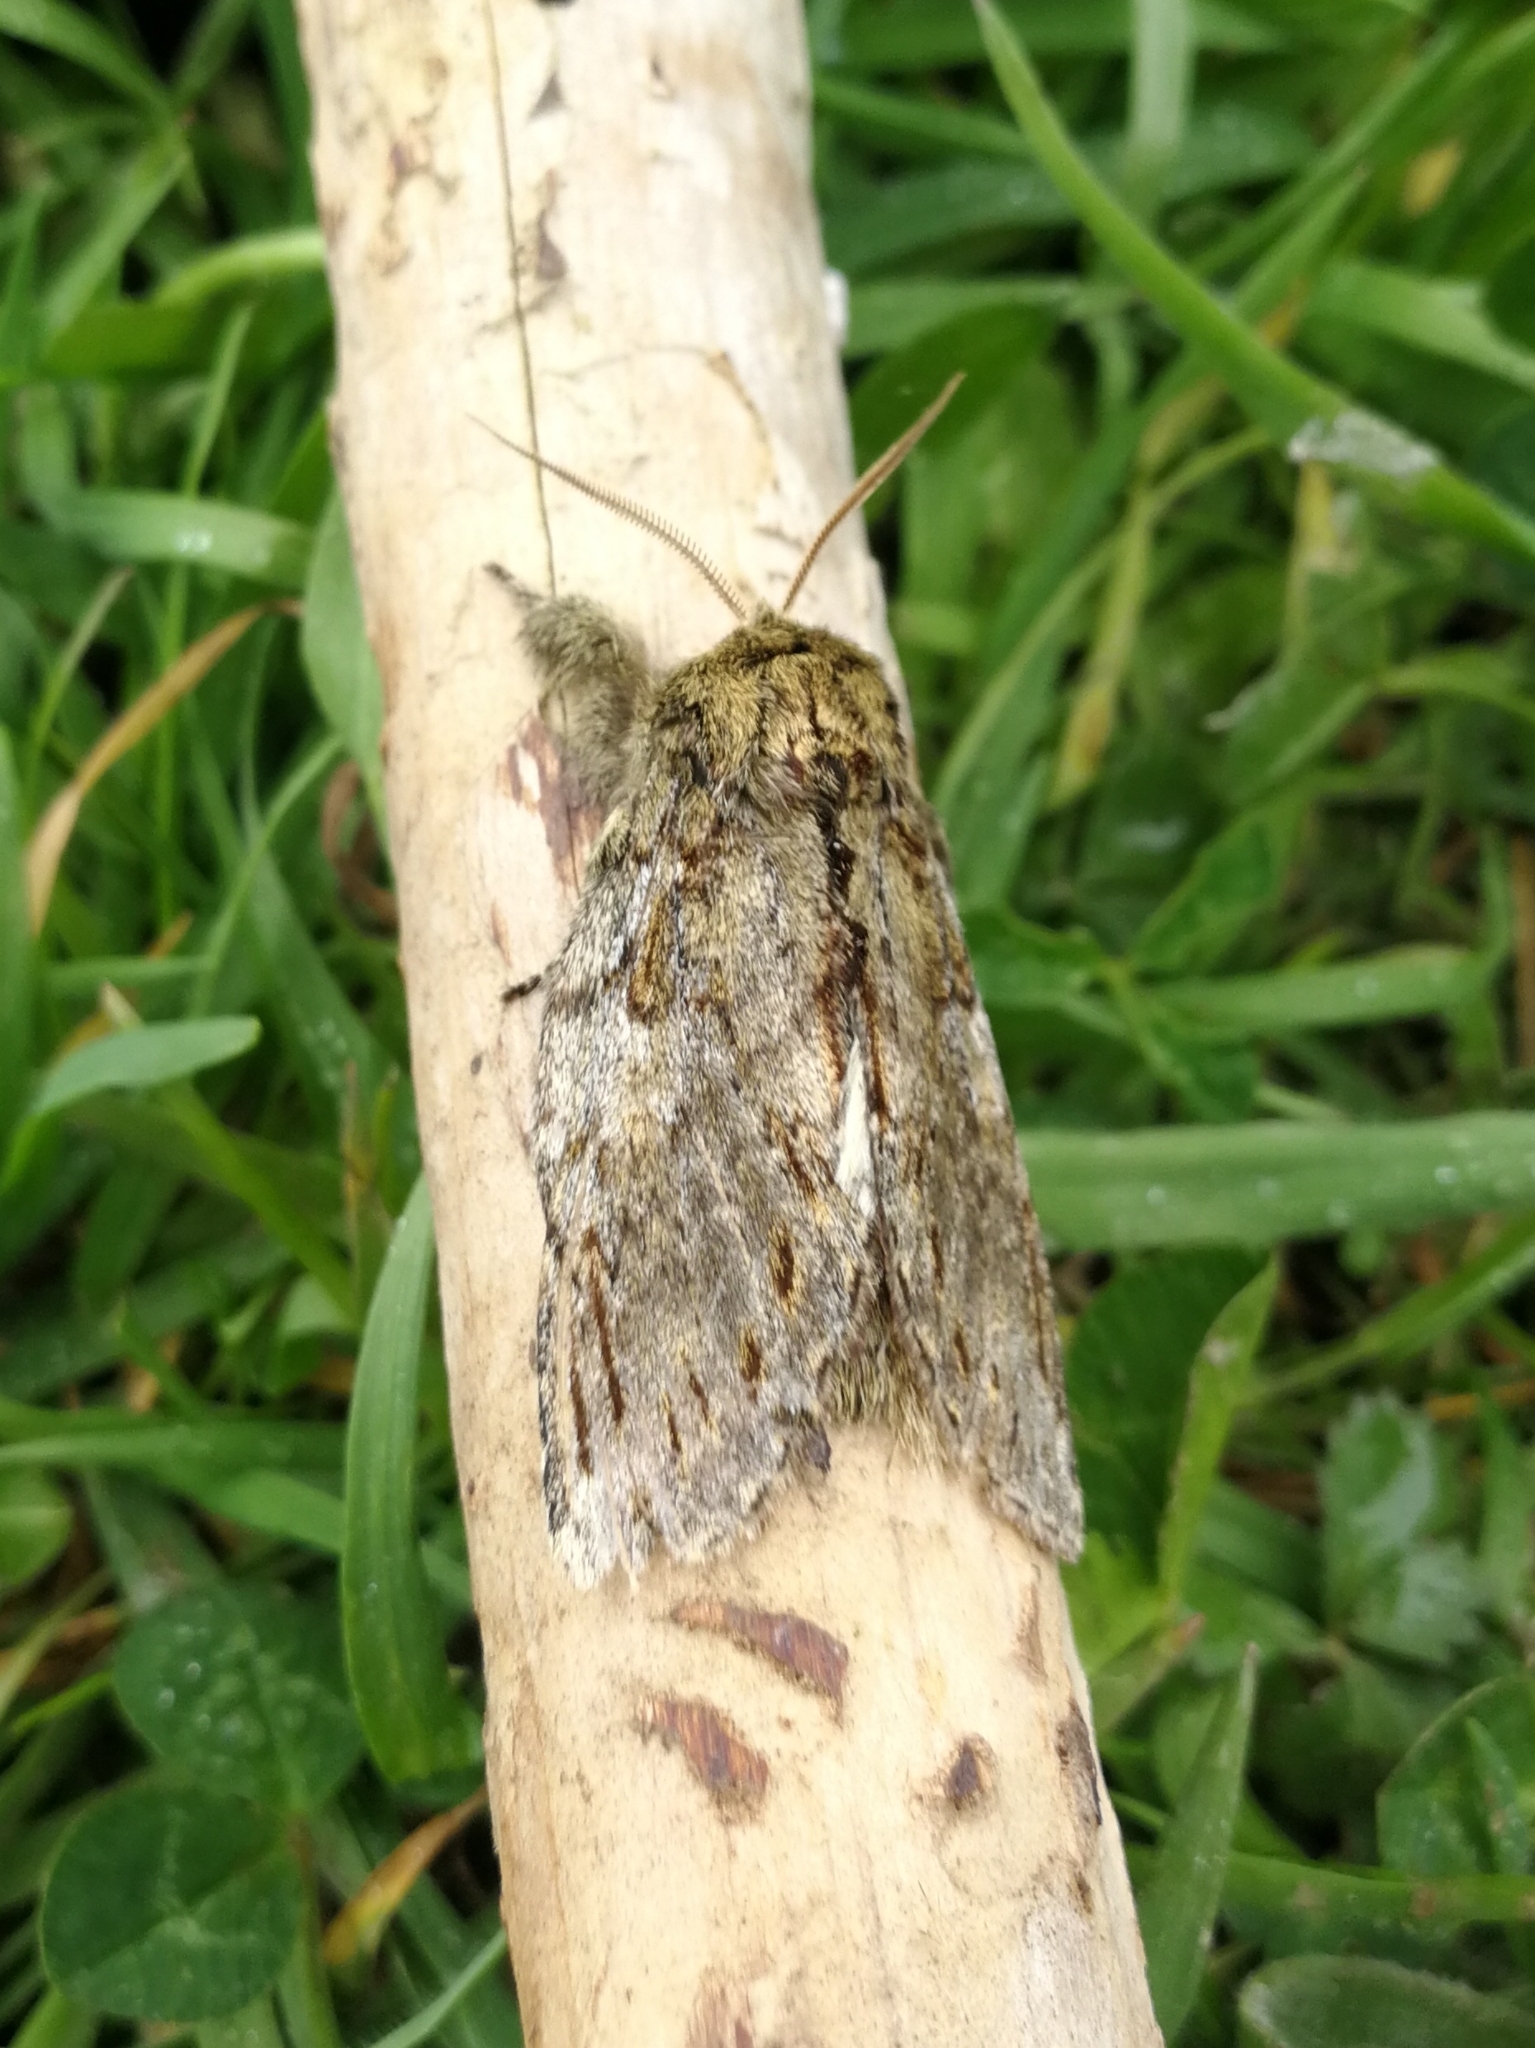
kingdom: Animalia
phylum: Arthropoda
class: Insecta
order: Lepidoptera
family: Notodontidae
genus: Peridea
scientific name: Peridea anceps
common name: Great prominent
